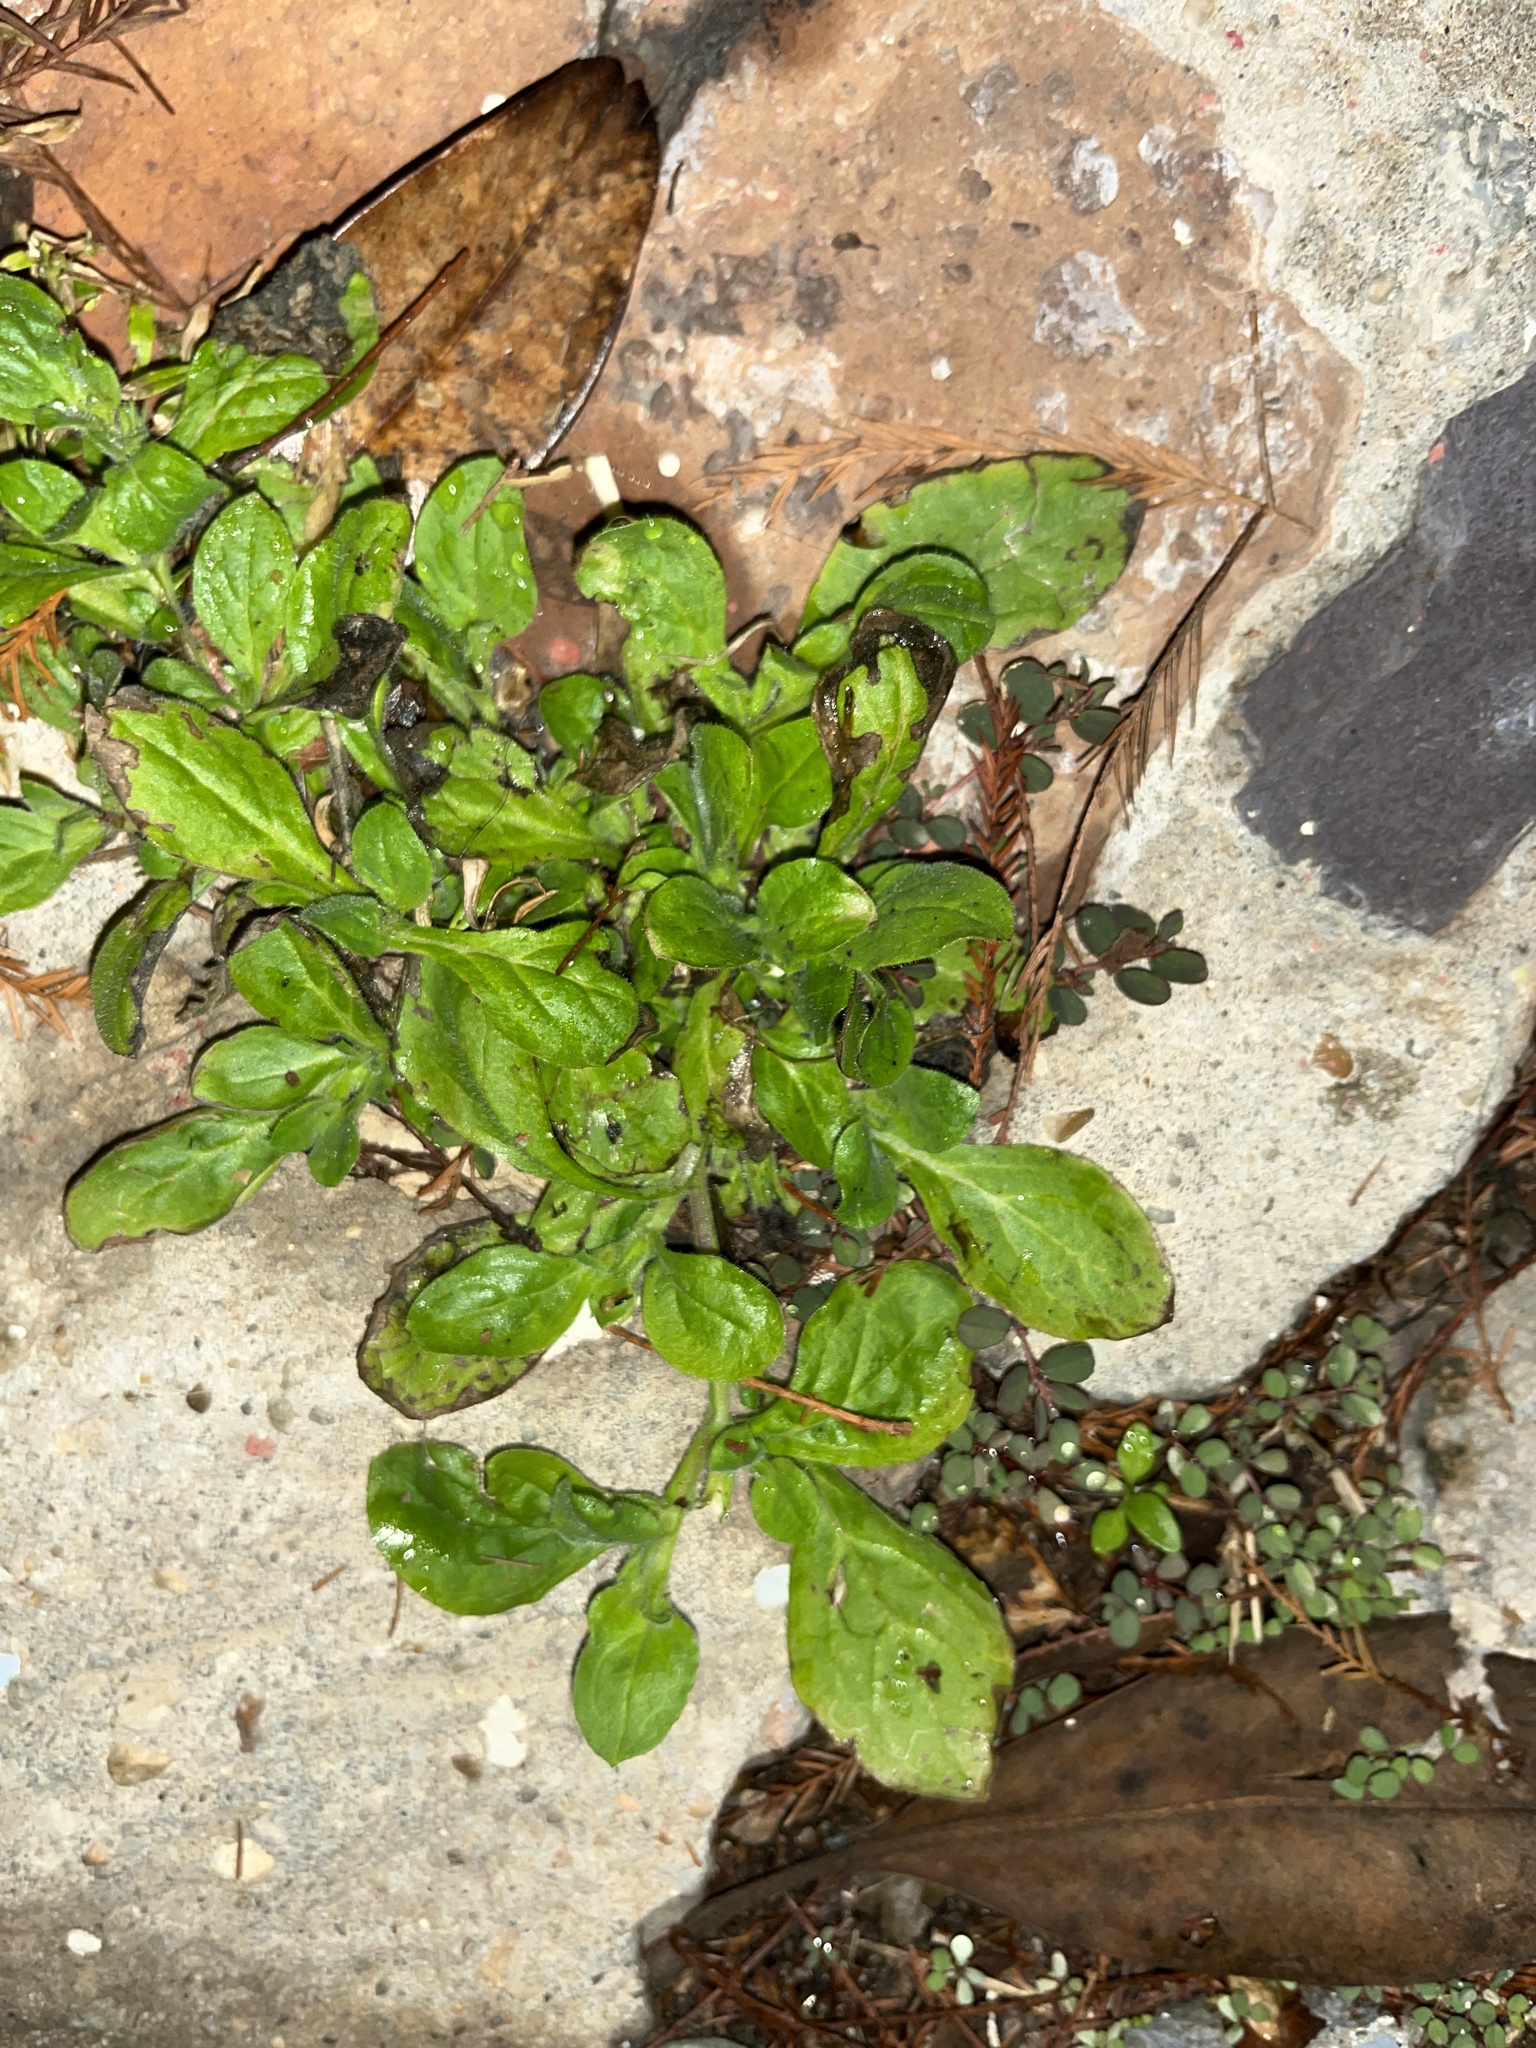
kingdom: Plantae
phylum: Tracheophyta
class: Magnoliopsida
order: Asterales
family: Asteraceae
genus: Youngia
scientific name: Youngia japonica
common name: Oriental false hawksbeard
